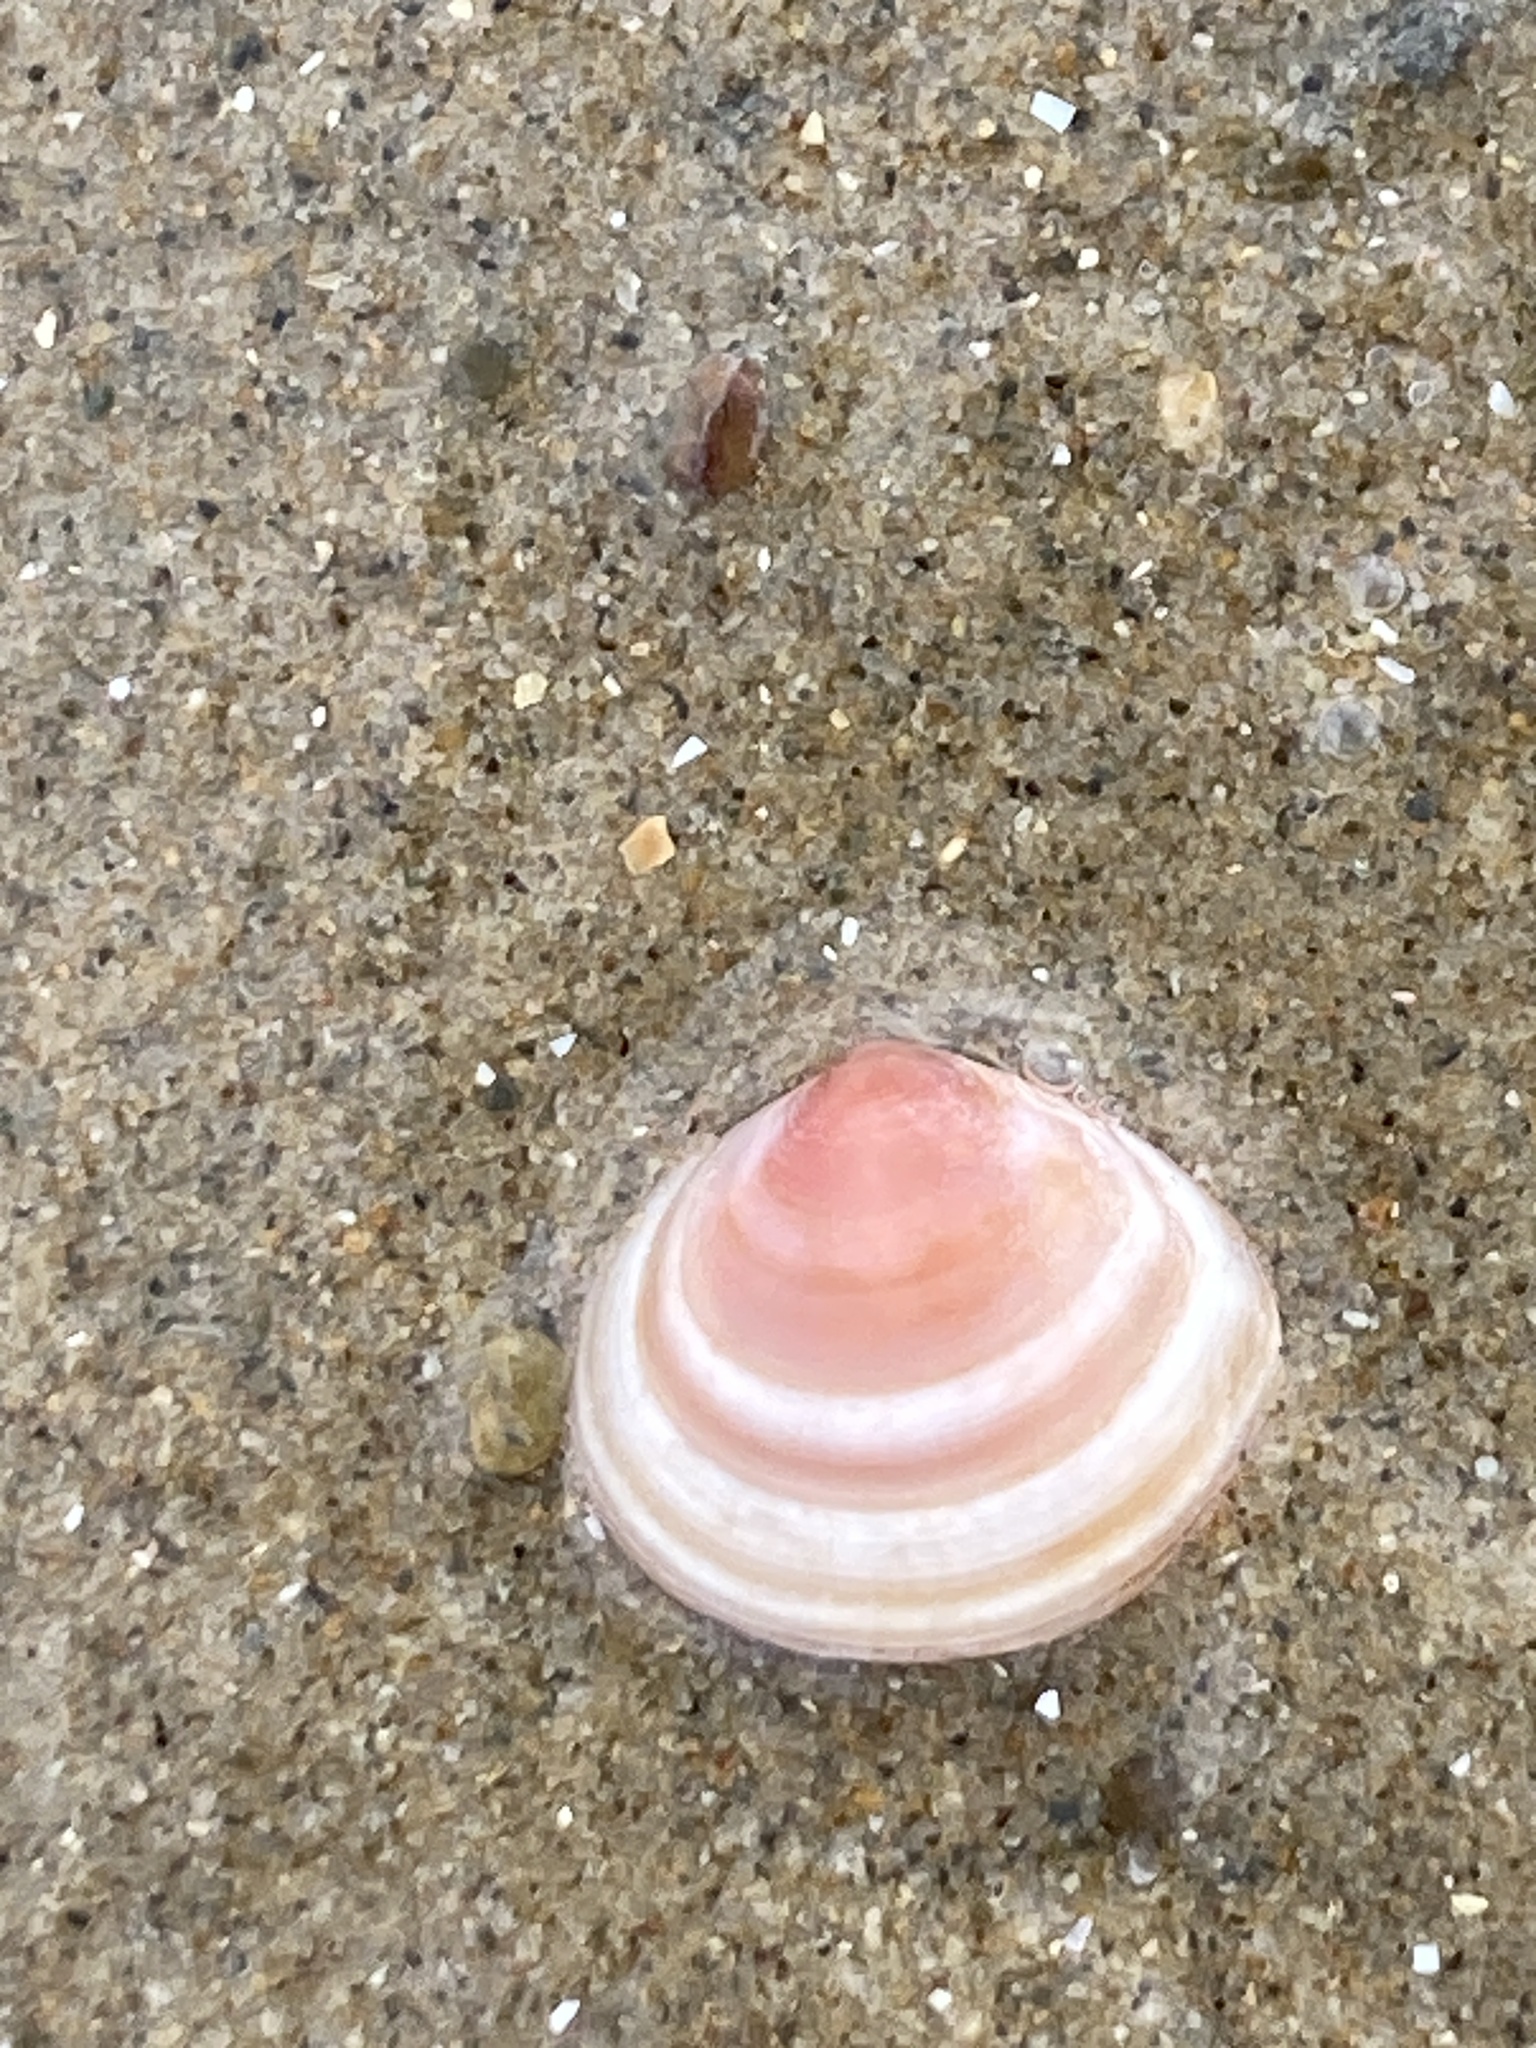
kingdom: Animalia
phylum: Mollusca
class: Bivalvia
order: Cardiida
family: Tellinidae
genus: Macoma
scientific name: Macoma balthica
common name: Baltic tellin
